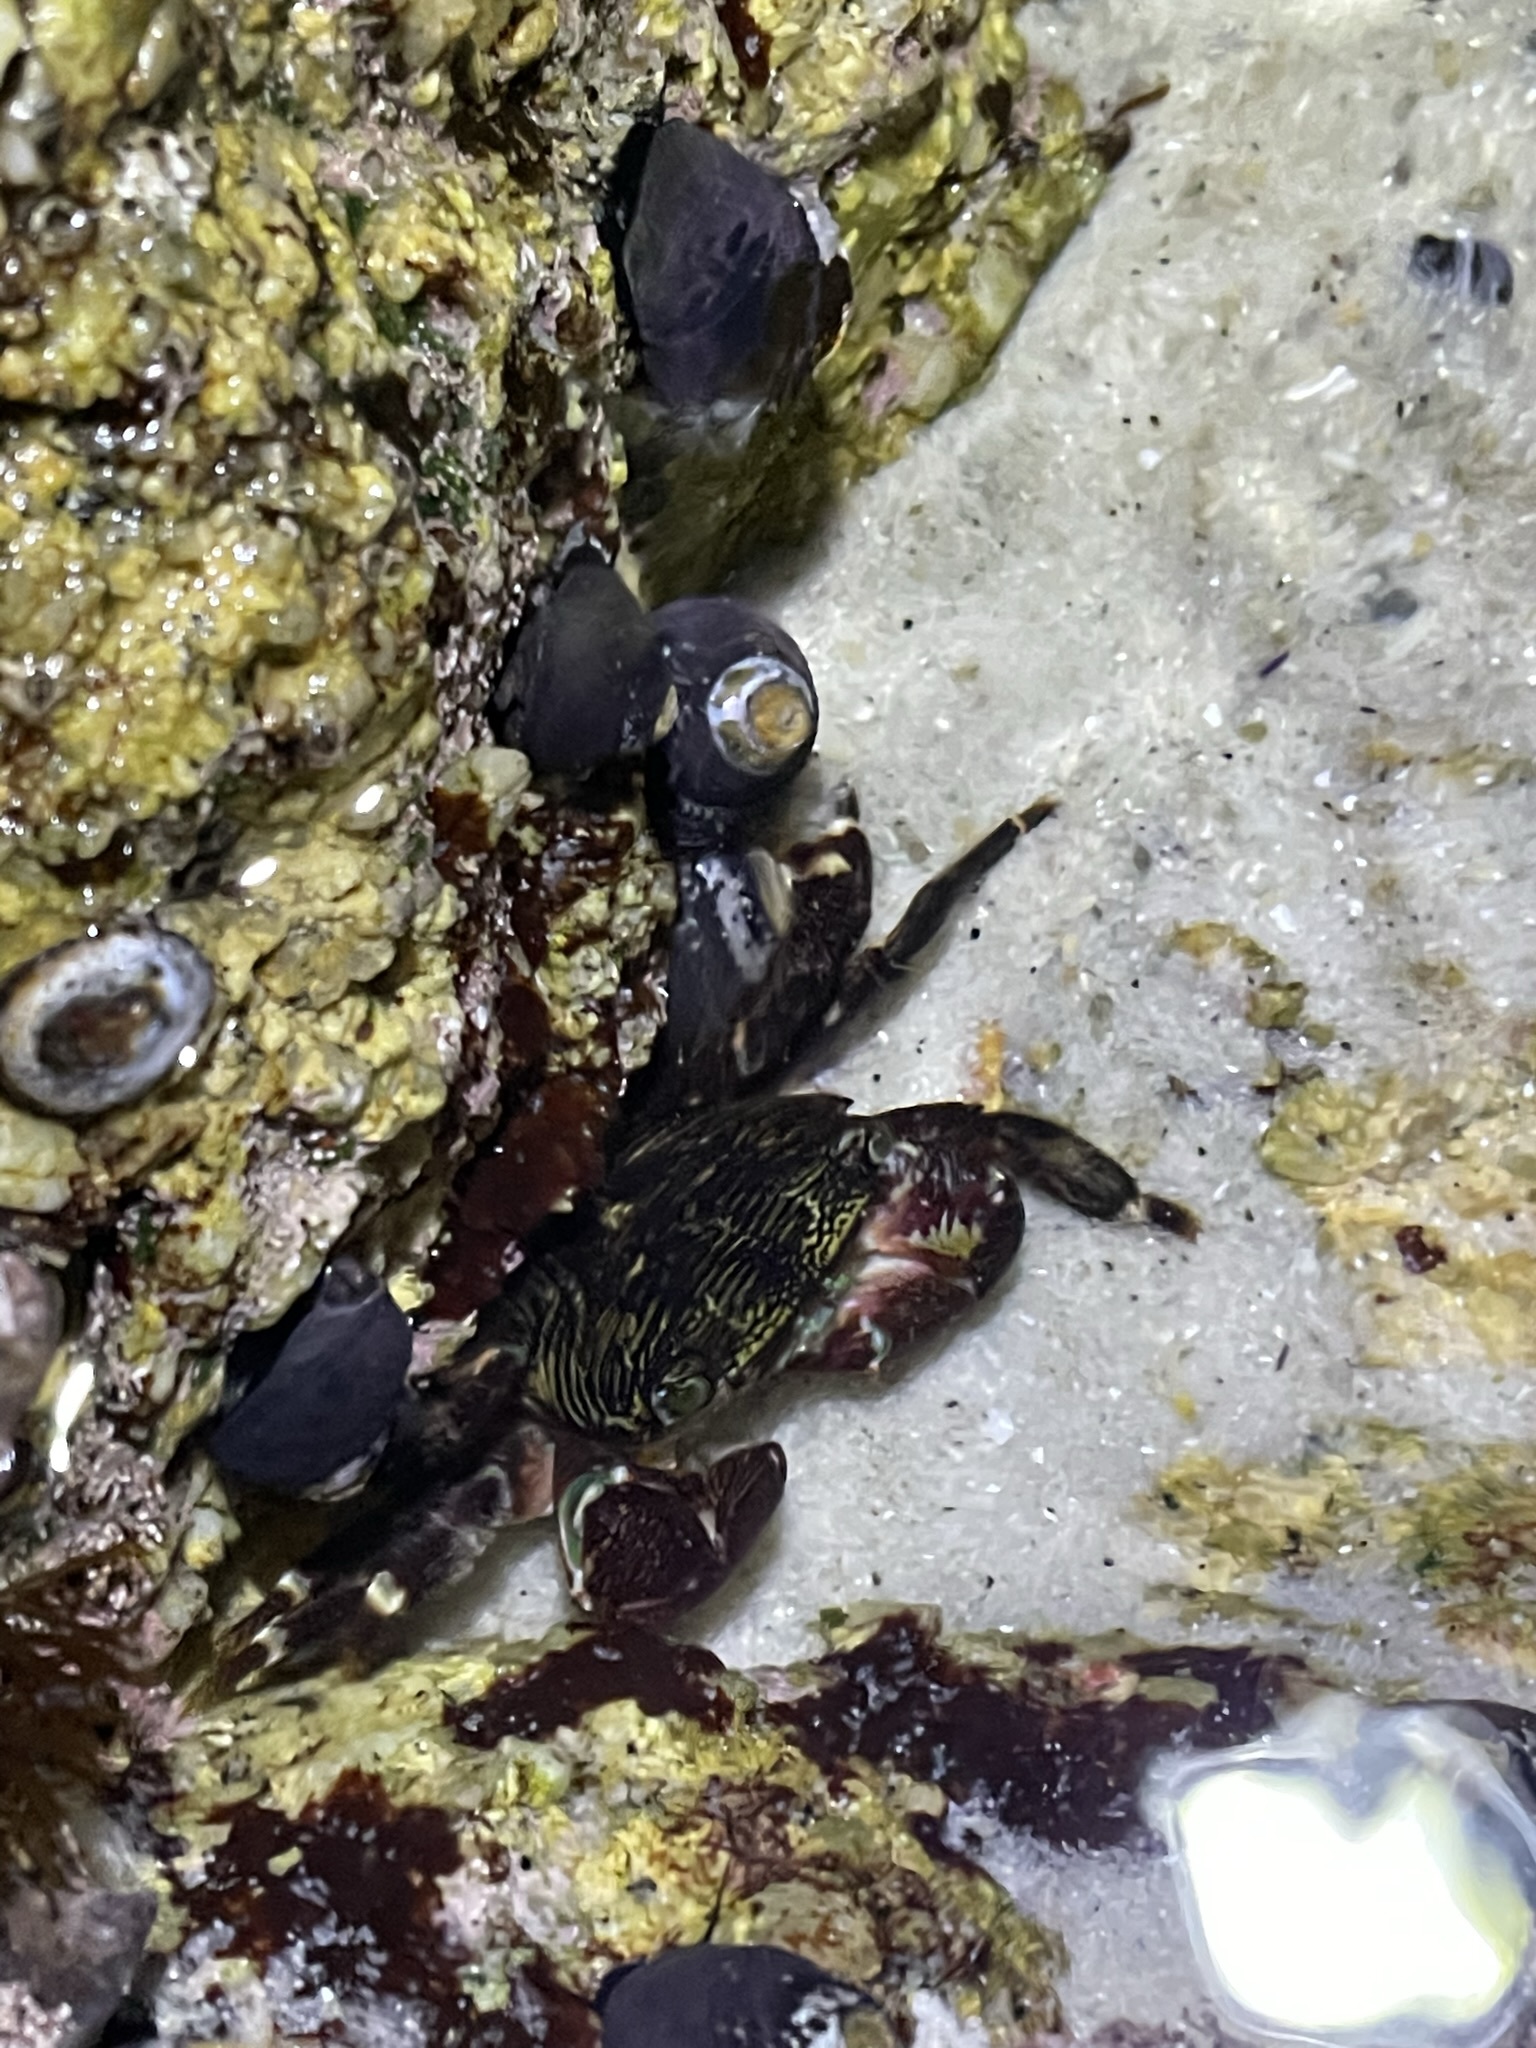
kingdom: Animalia
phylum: Arthropoda
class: Malacostraca
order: Decapoda
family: Grapsidae
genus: Pachygrapsus
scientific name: Pachygrapsus crassipes
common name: Striped shore crab
